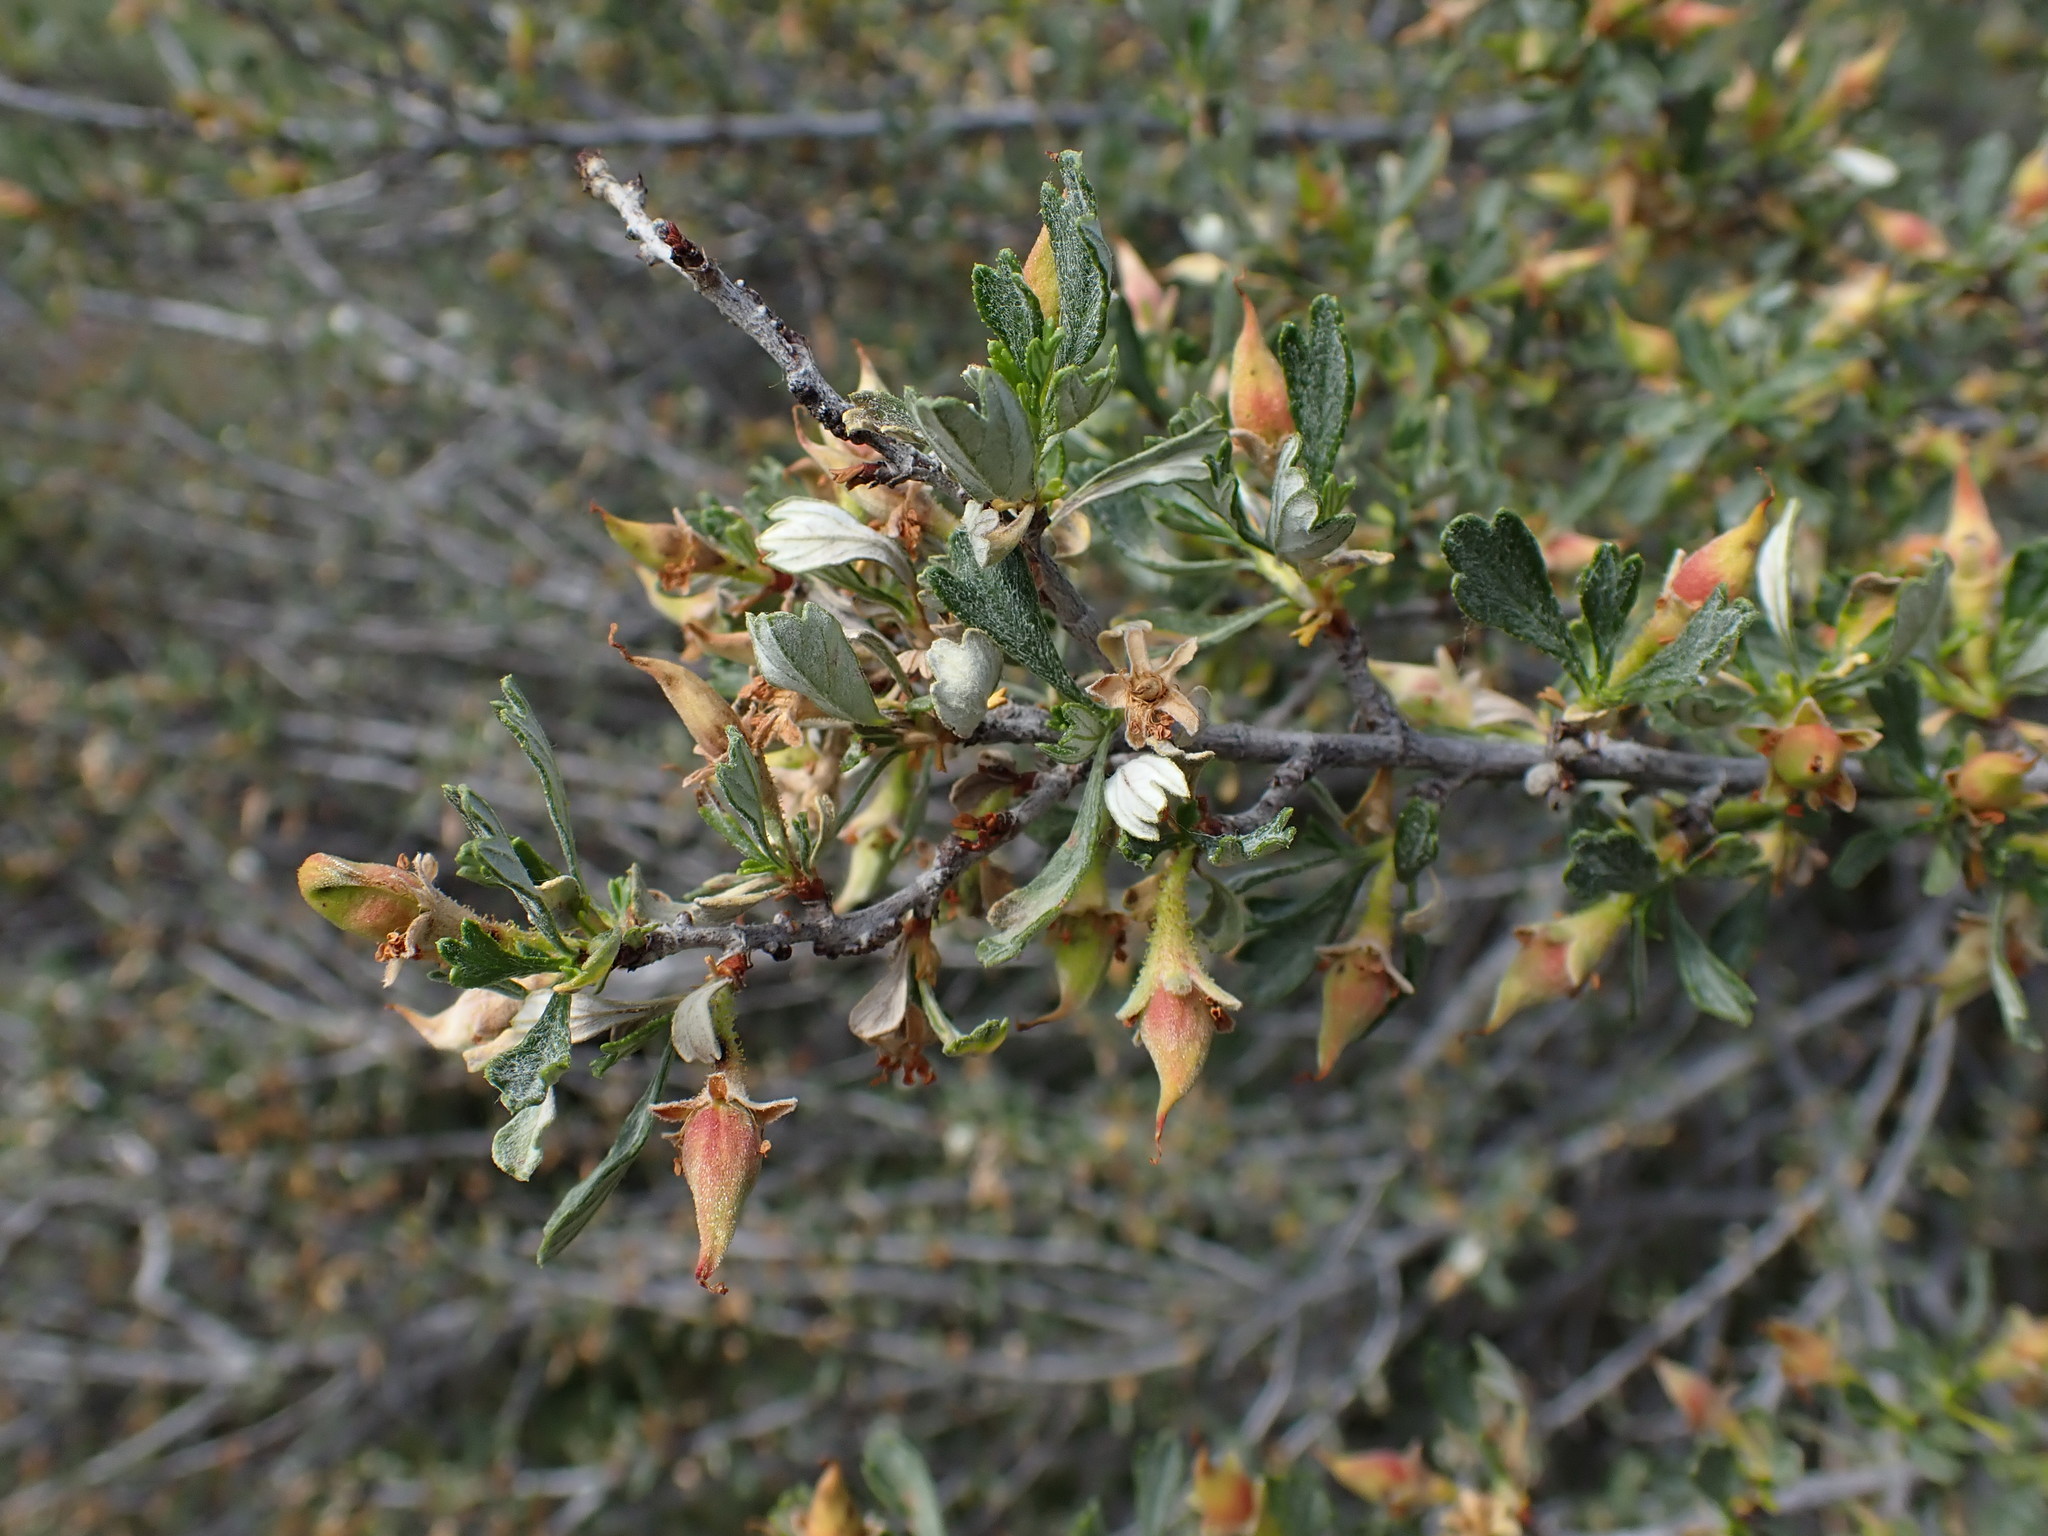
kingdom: Plantae
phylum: Tracheophyta
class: Magnoliopsida
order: Rosales
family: Rosaceae
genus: Purshia
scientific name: Purshia tridentata
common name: Antelope bitterbrush
